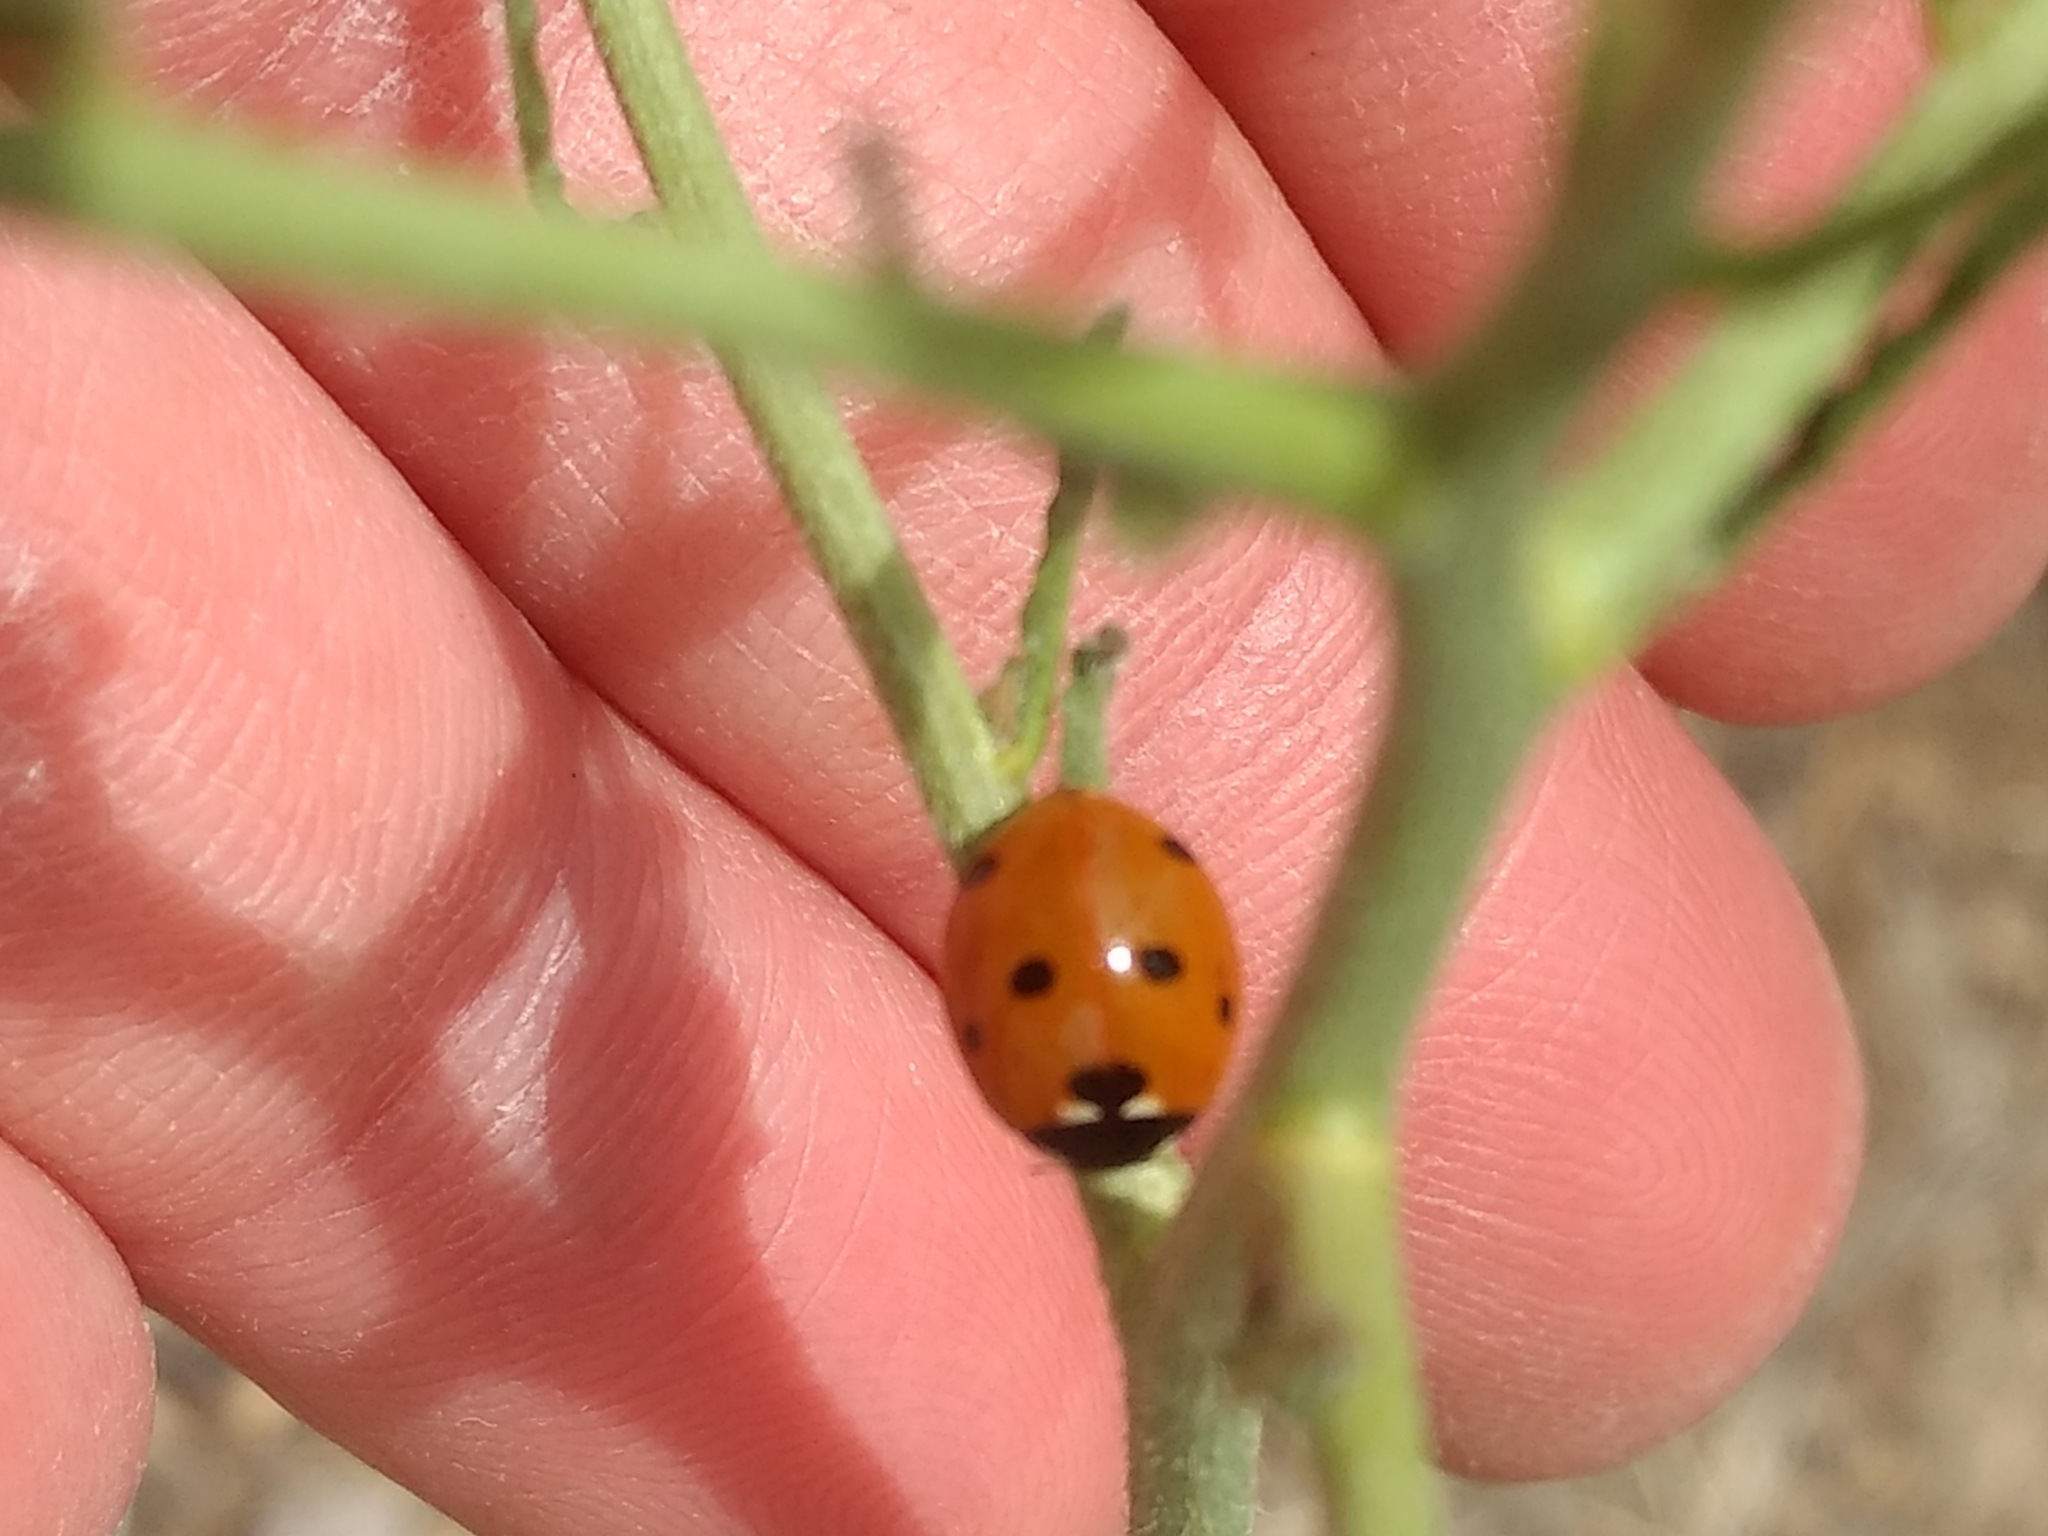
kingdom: Animalia
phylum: Arthropoda
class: Insecta
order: Coleoptera
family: Coccinellidae
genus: Coccinella
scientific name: Coccinella septempunctata
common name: Sevenspotted lady beetle
